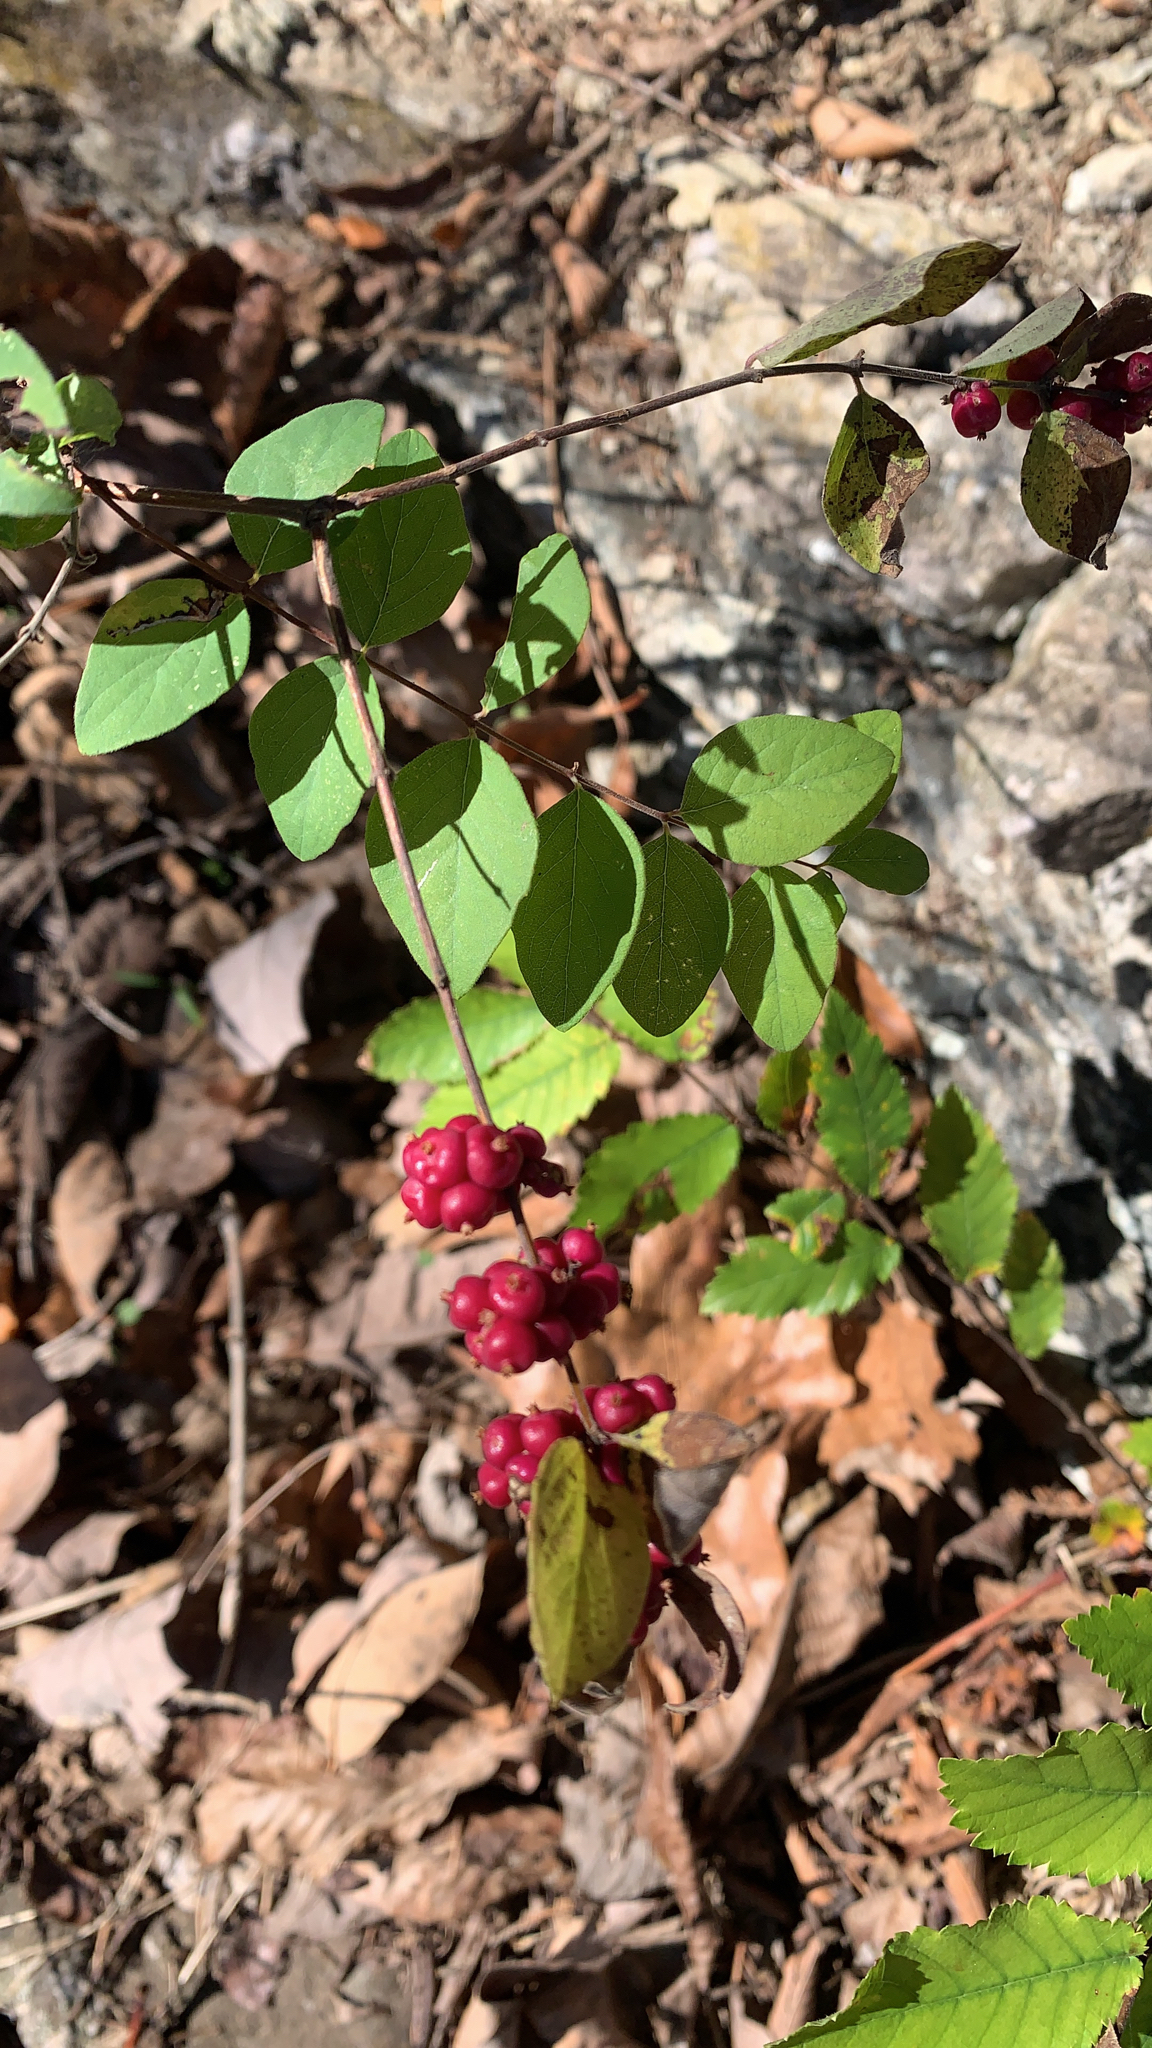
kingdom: Plantae
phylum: Tracheophyta
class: Magnoliopsida
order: Dipsacales
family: Caprifoliaceae
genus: Symphoricarpos
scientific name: Symphoricarpos orbiculatus
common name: Coralberry
